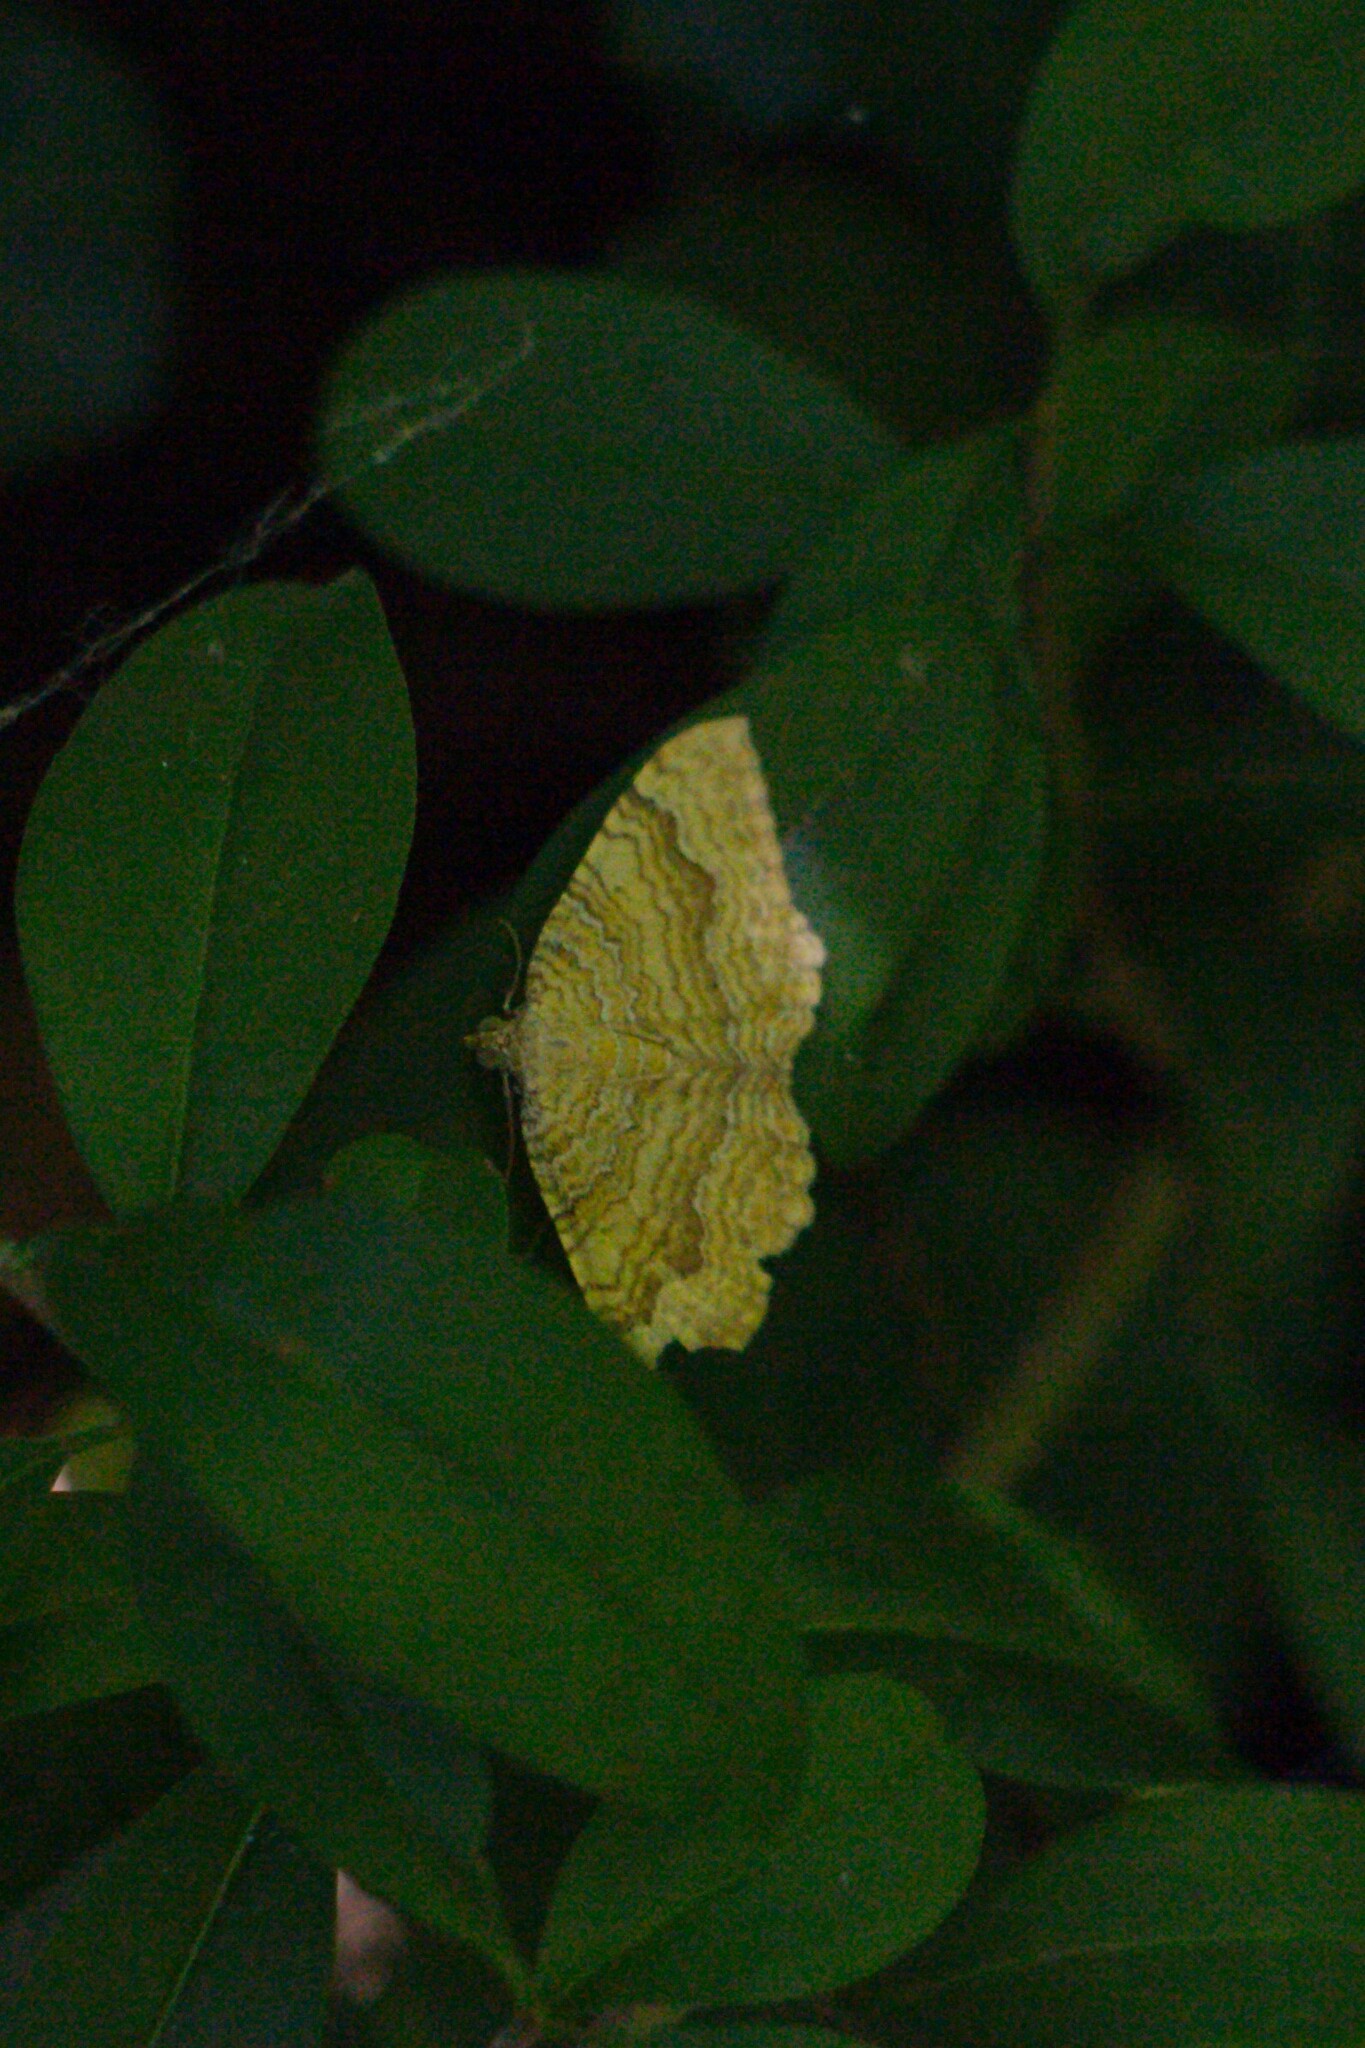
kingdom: Animalia
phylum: Arthropoda
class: Insecta
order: Lepidoptera
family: Geometridae
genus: Camptogramma
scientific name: Camptogramma bilineata
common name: Yellow shell
